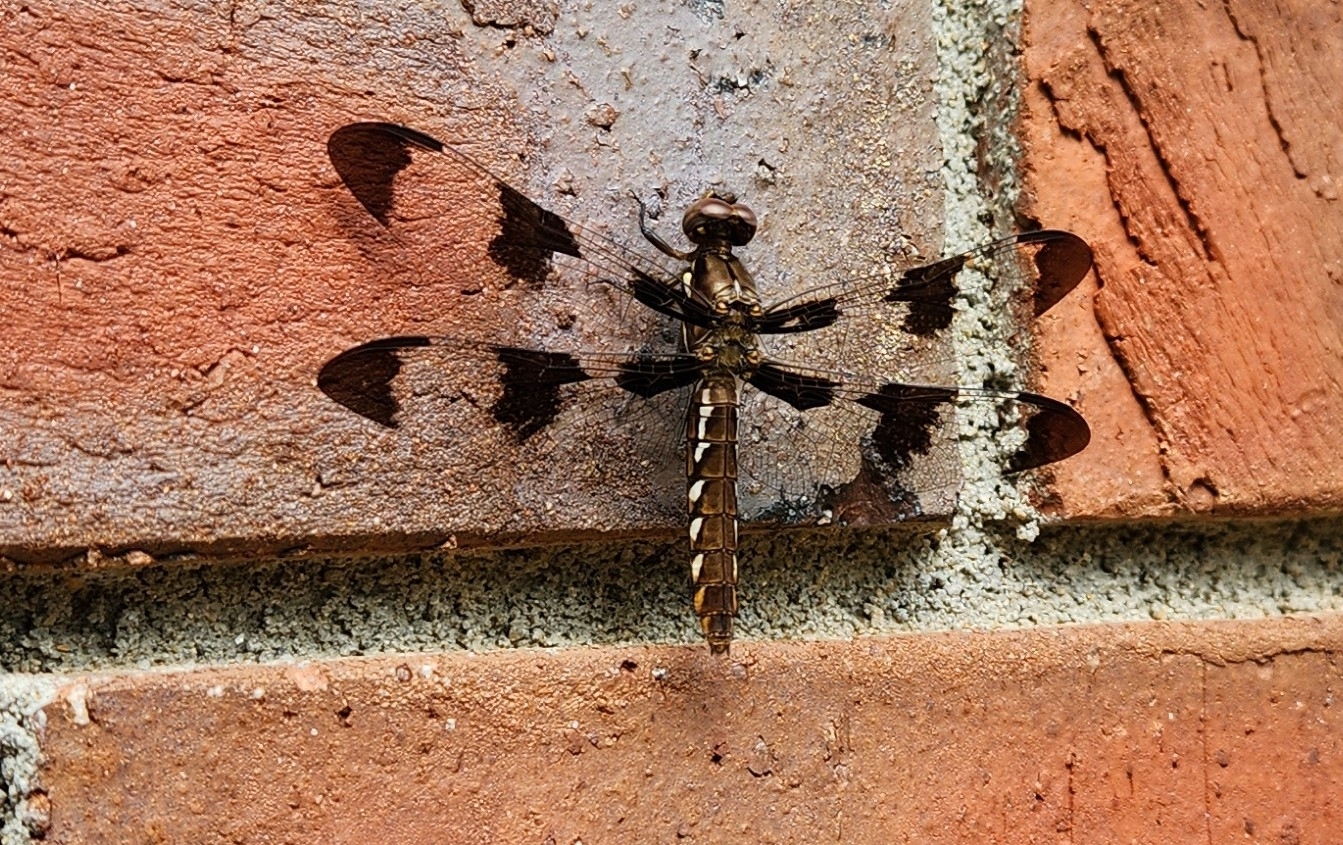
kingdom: Animalia
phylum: Arthropoda
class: Insecta
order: Odonata
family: Libellulidae
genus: Plathemis
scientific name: Plathemis lydia
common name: Common whitetail
